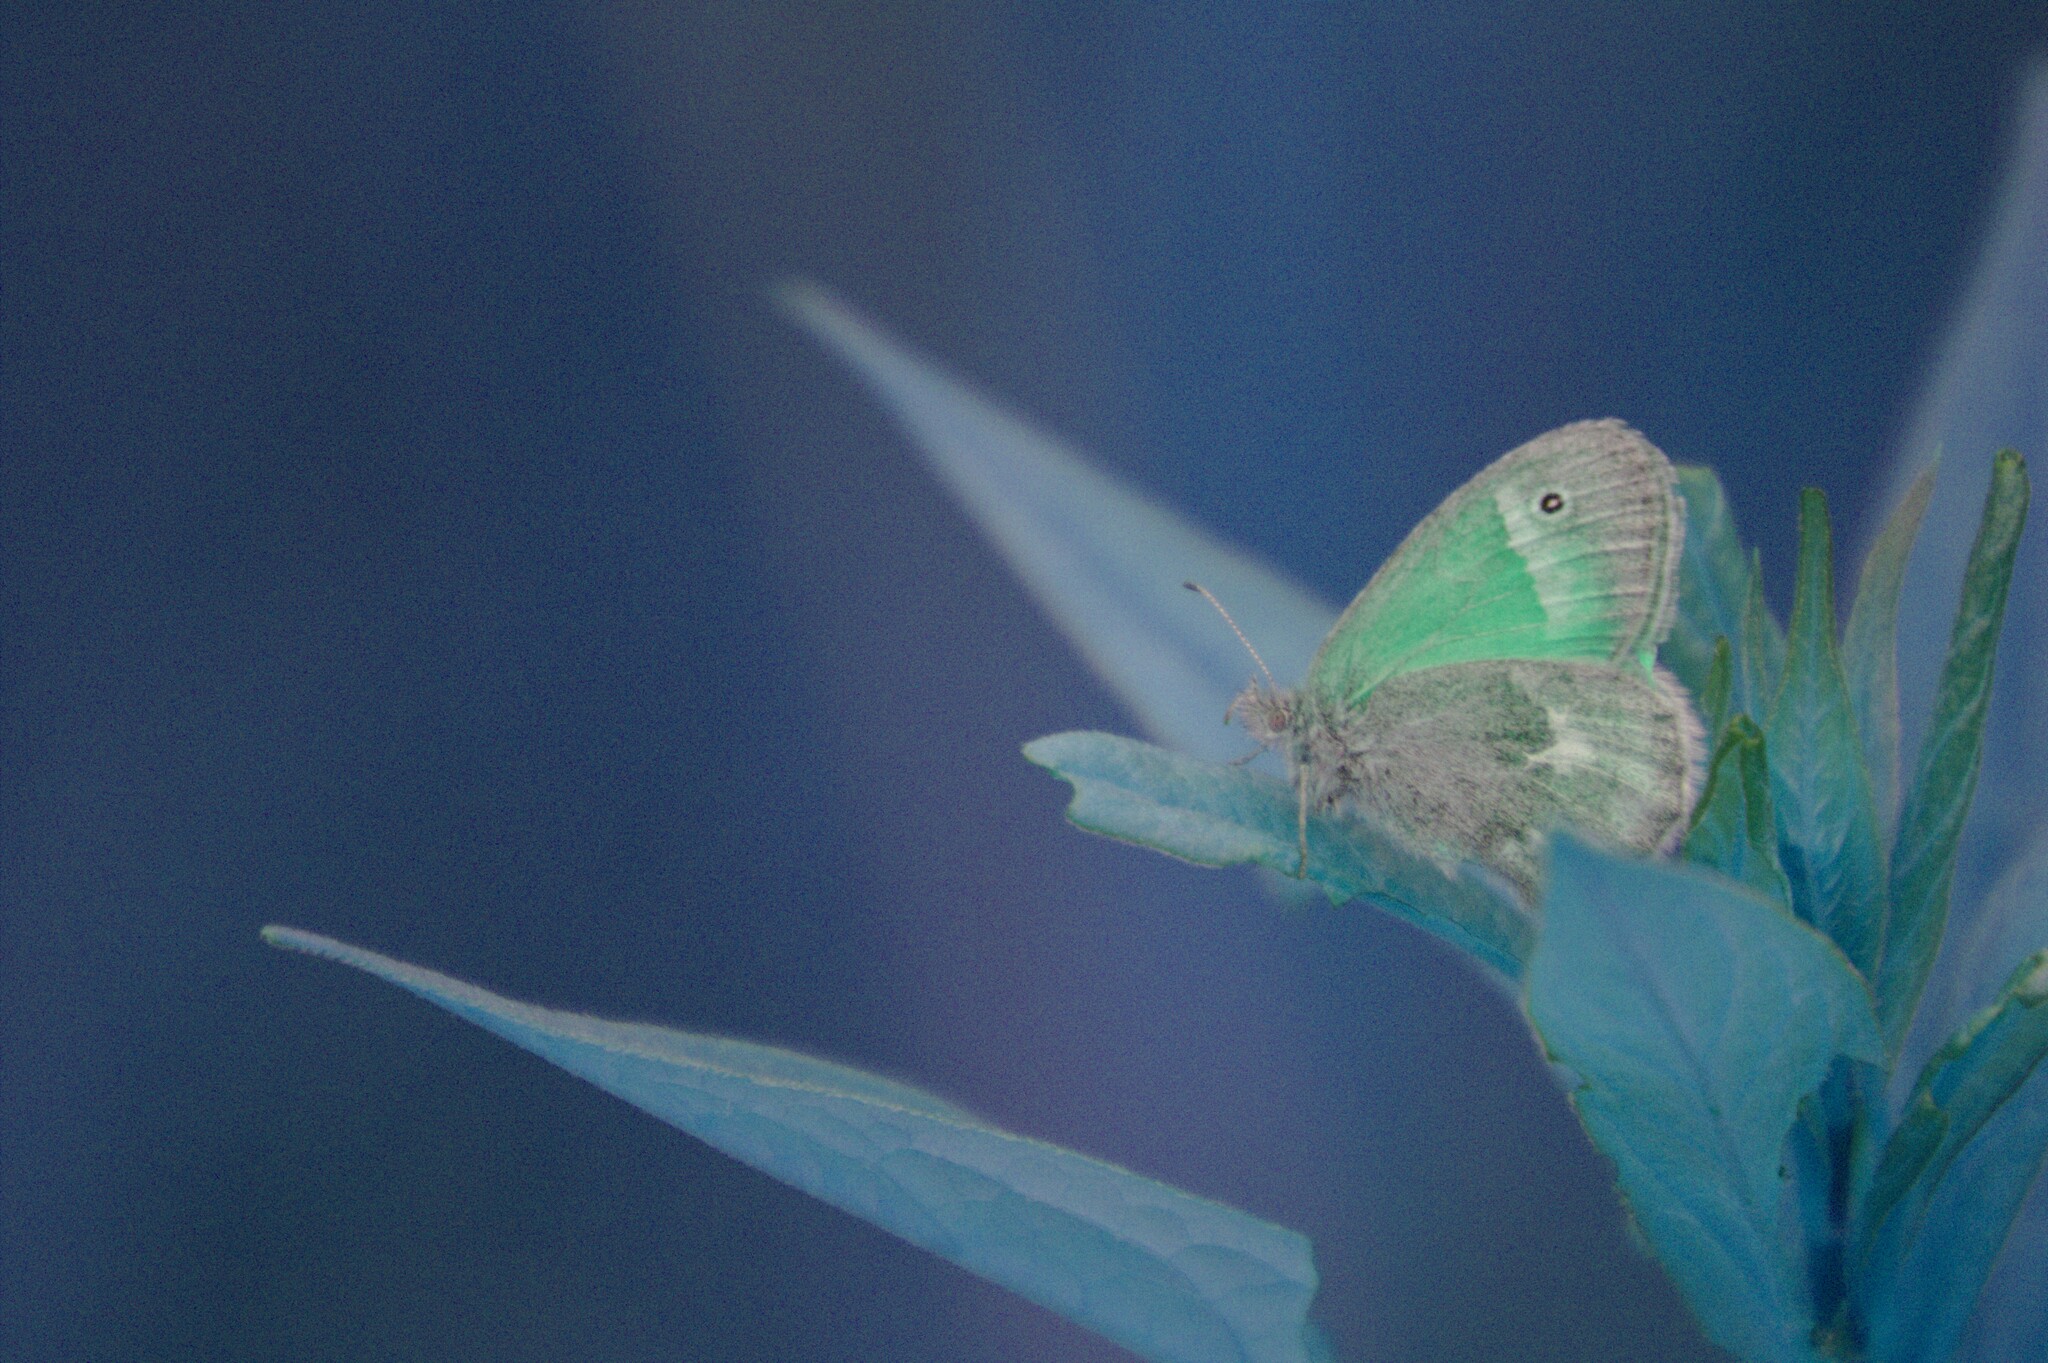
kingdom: Animalia
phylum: Arthropoda
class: Insecta
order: Lepidoptera
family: Nymphalidae
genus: Coenonympha
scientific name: Coenonympha california
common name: Common ringlet
